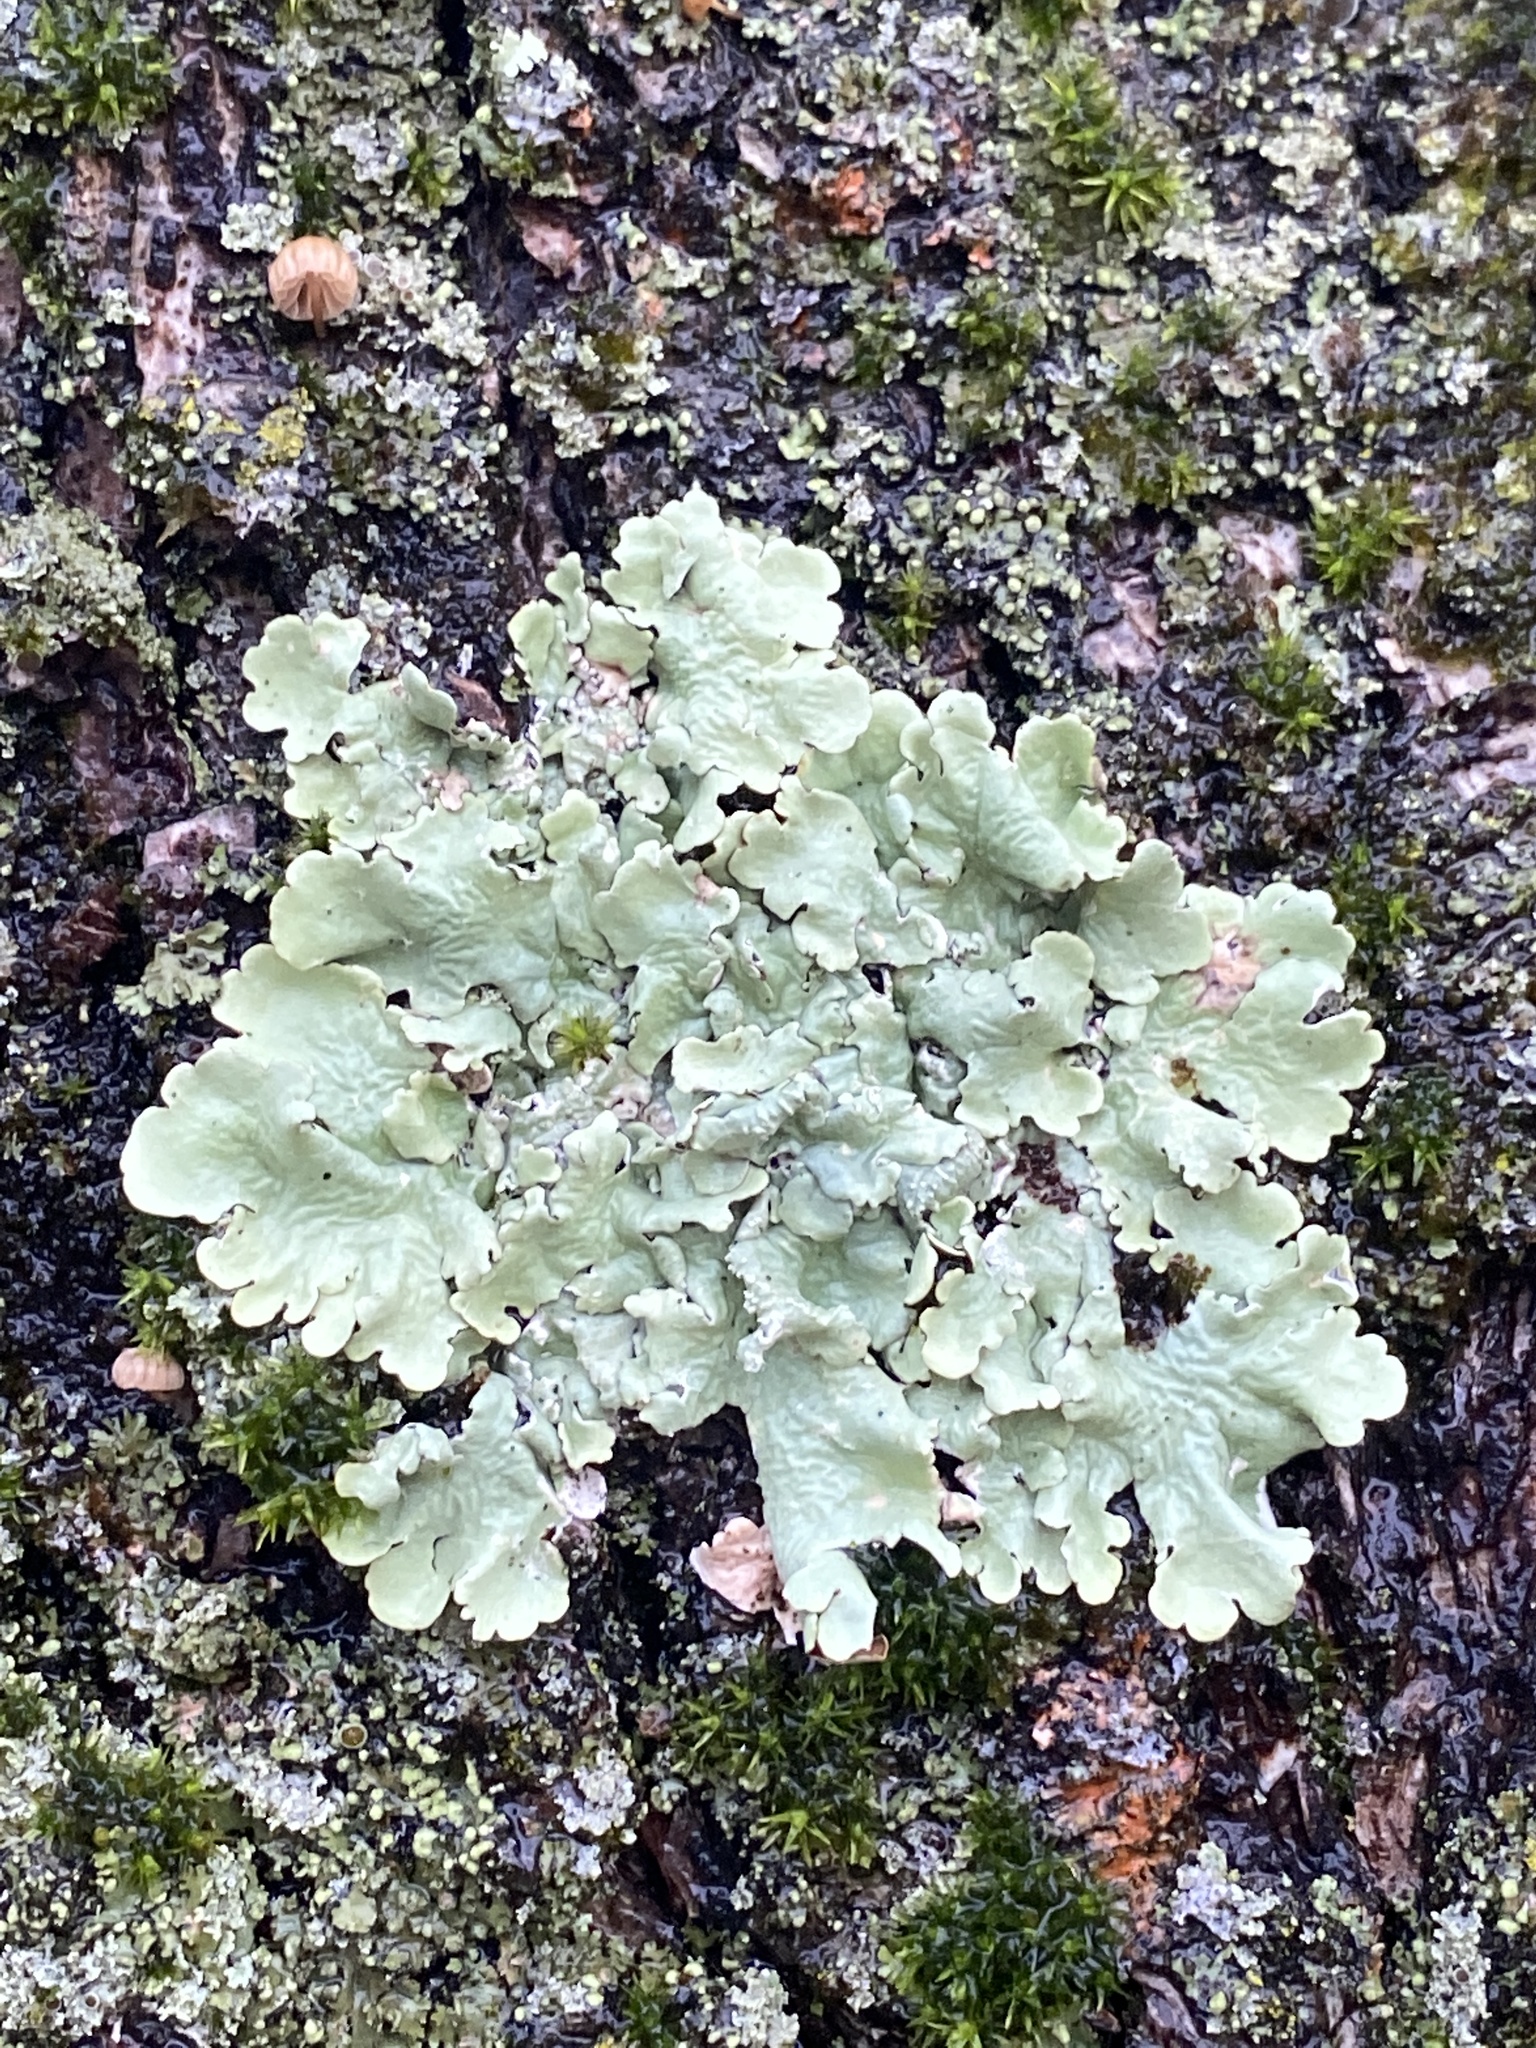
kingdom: Fungi
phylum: Ascomycota
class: Lecanoromycetes
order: Lecanorales
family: Parmeliaceae
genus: Flavoparmelia
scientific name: Flavoparmelia caperata
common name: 40-mile per hour lichen
